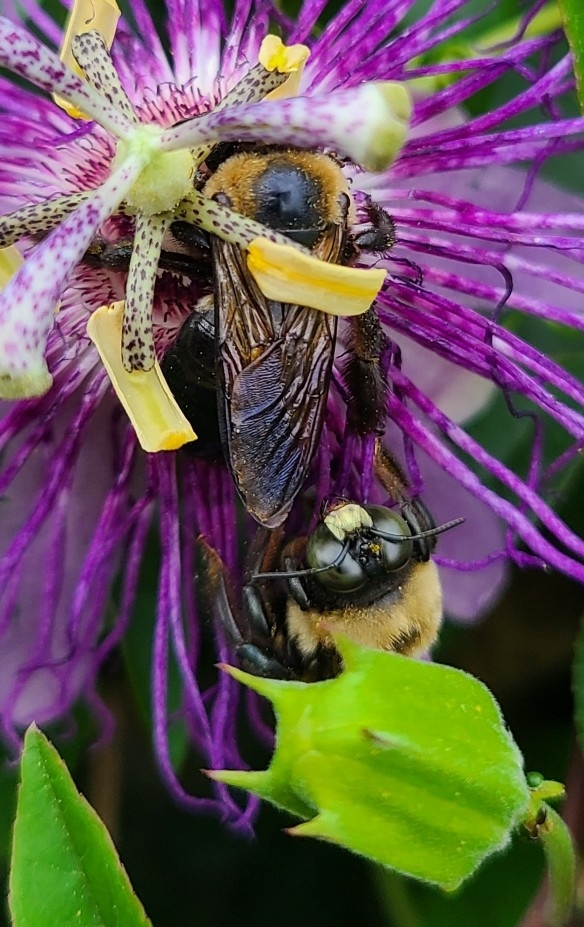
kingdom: Animalia
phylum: Arthropoda
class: Insecta
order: Hymenoptera
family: Apidae
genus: Xylocopa
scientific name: Xylocopa virginica
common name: Carpenter bee
